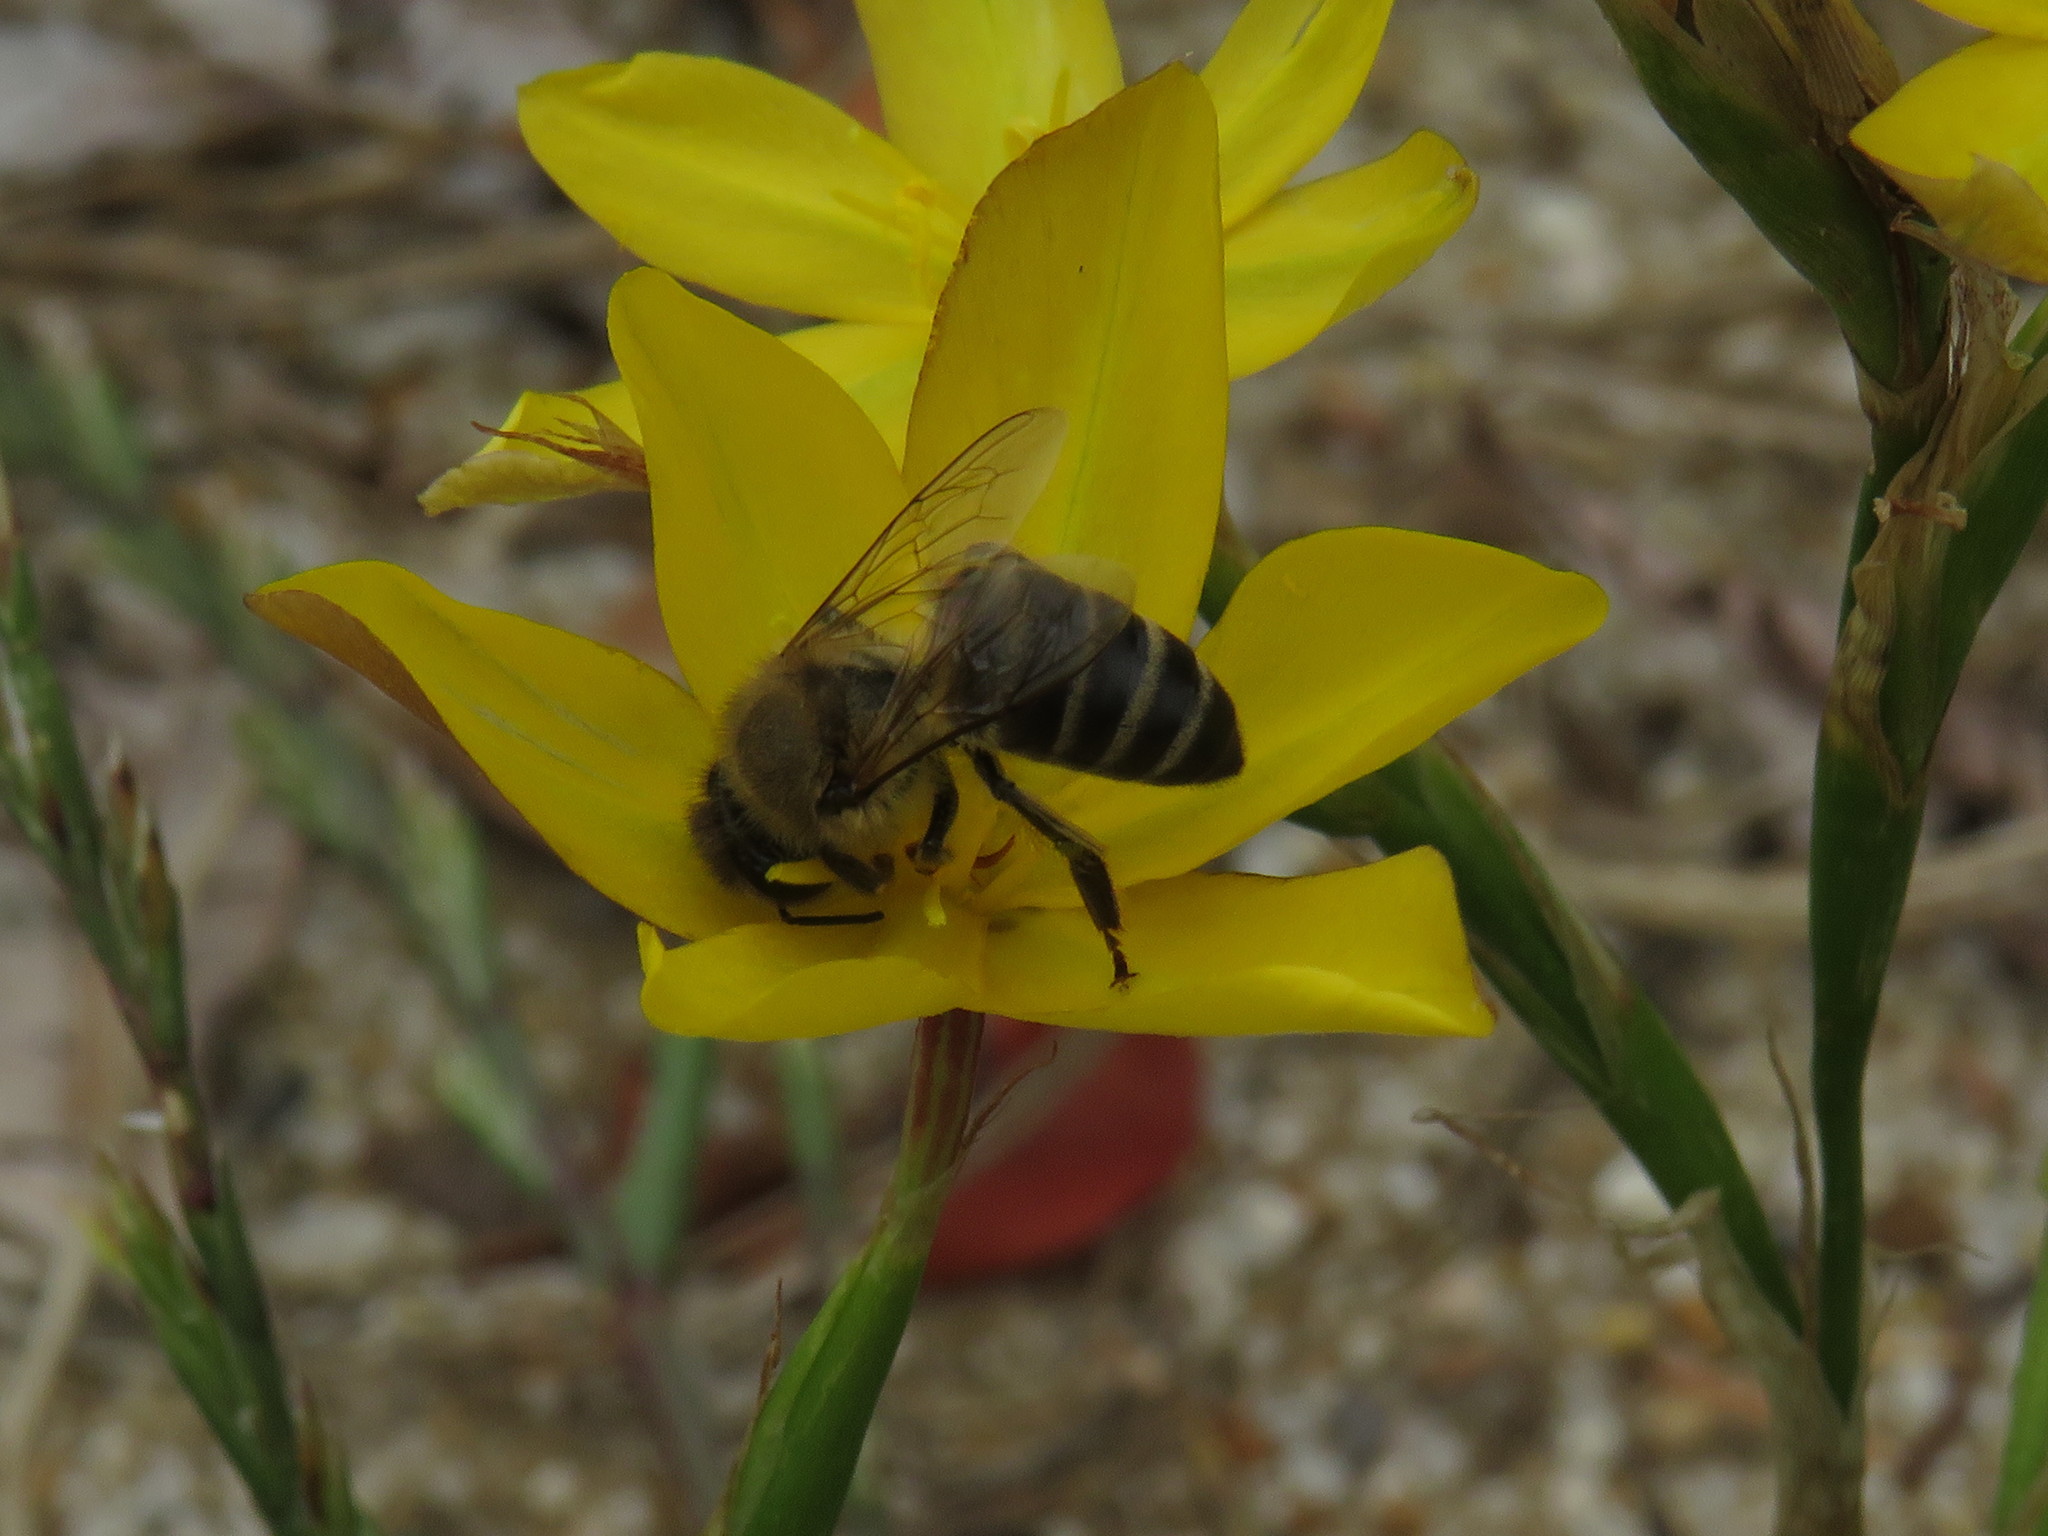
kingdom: Animalia
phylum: Arthropoda
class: Insecta
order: Hymenoptera
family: Apidae
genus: Apis
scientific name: Apis mellifera
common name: Honey bee
